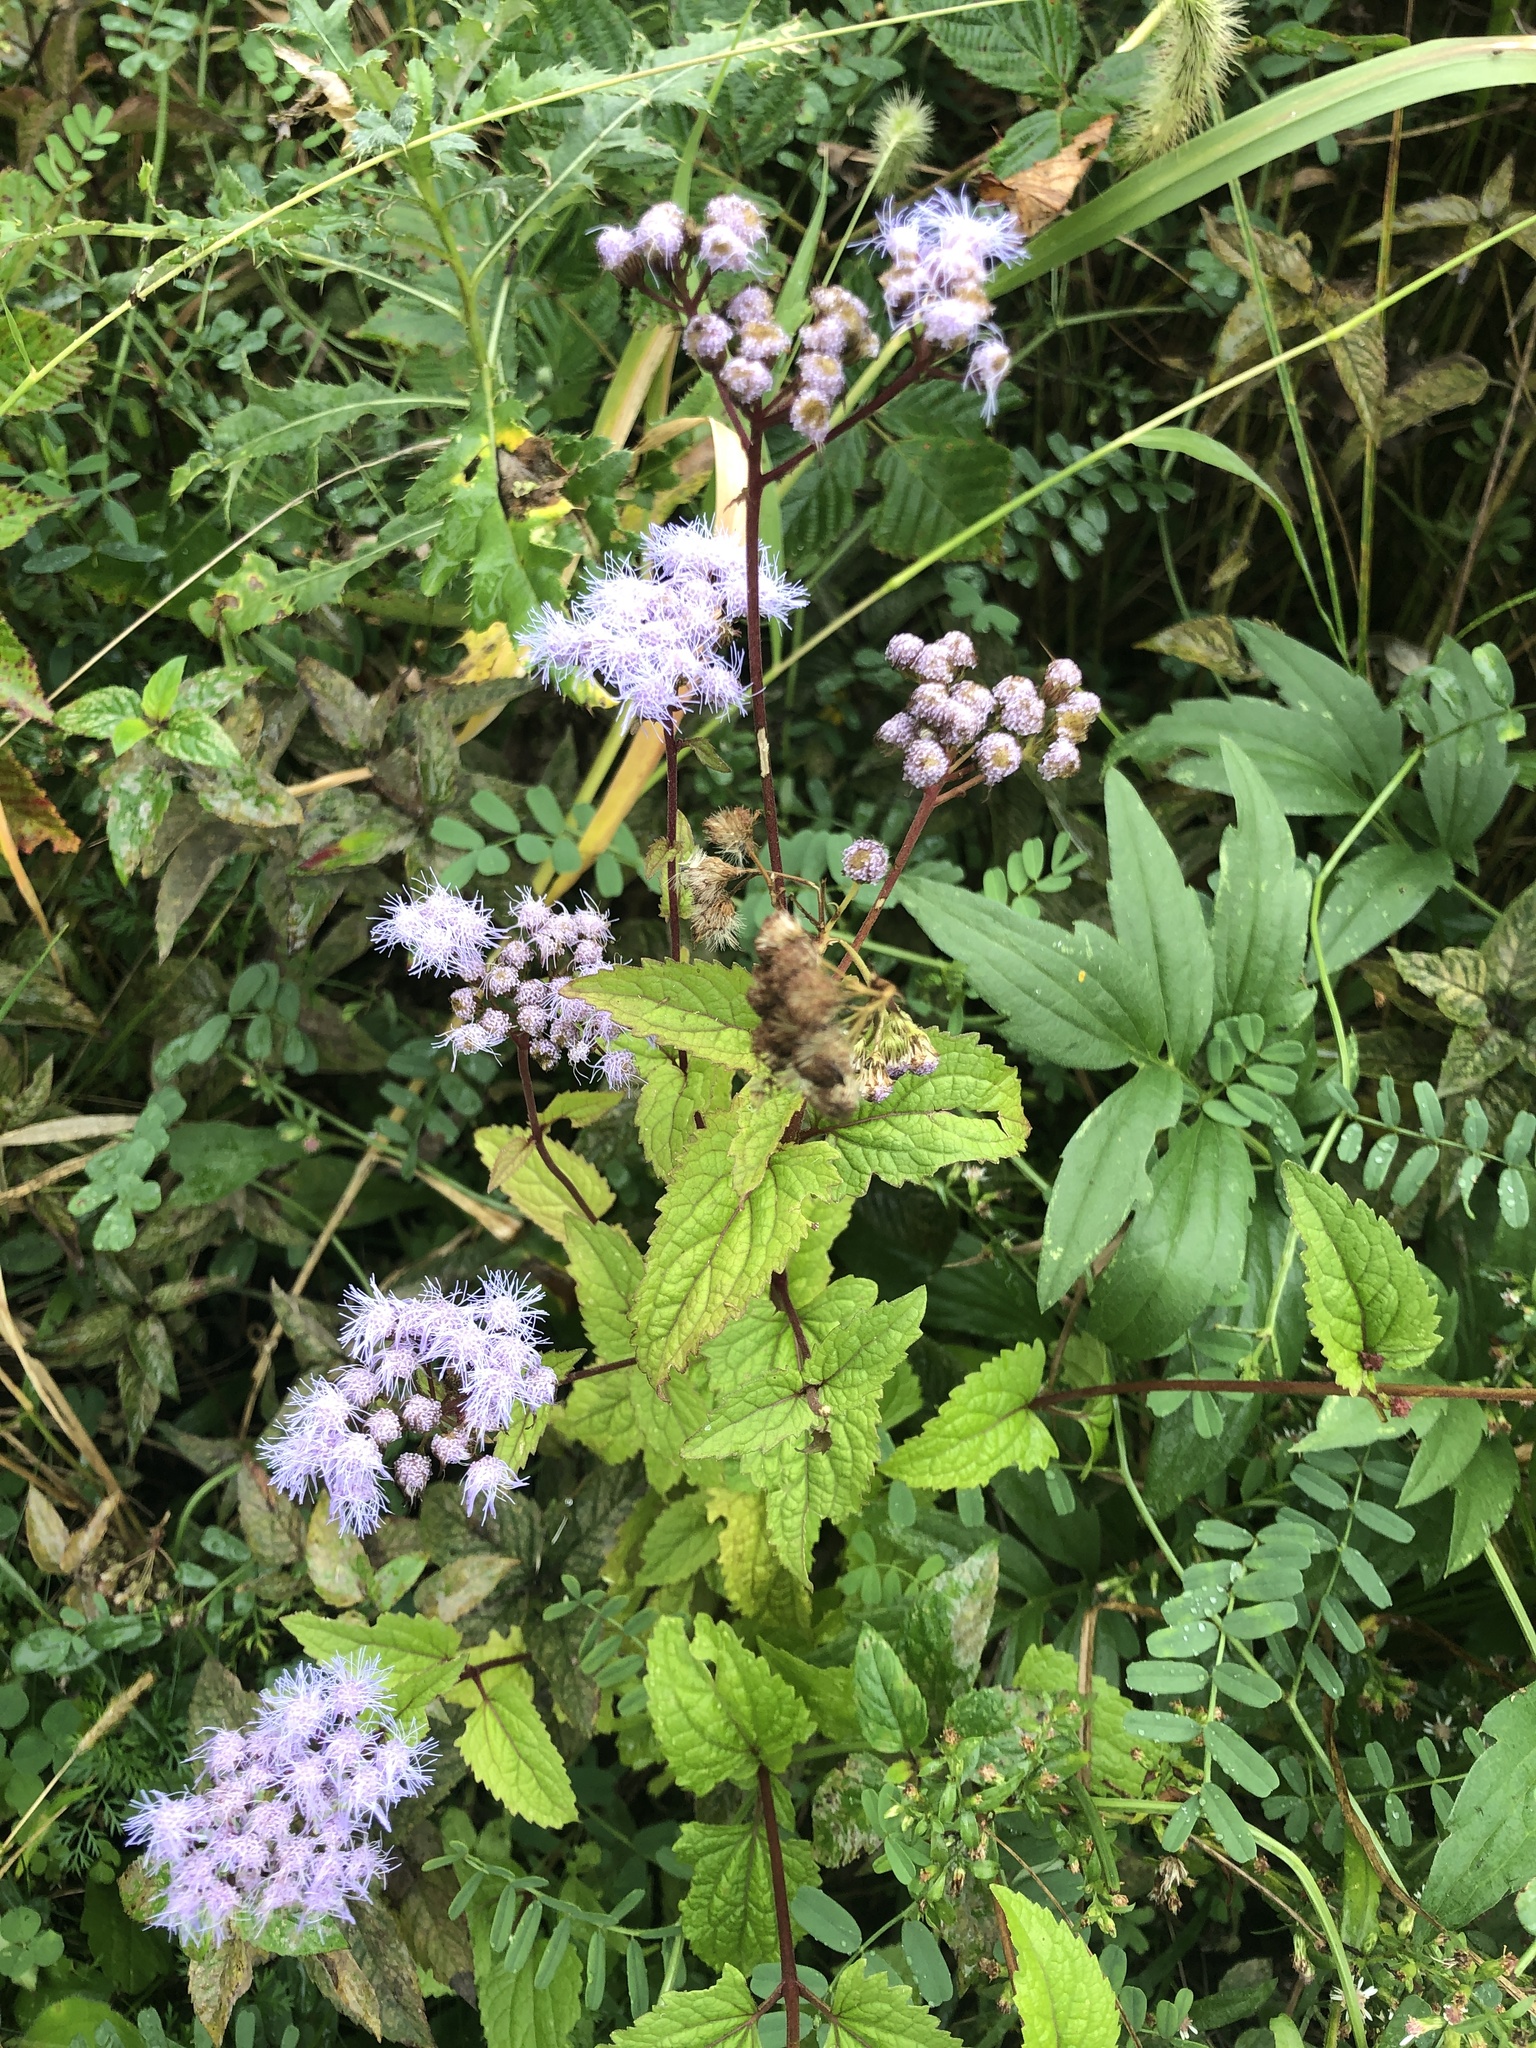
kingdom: Plantae
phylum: Tracheophyta
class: Magnoliopsida
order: Asterales
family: Asteraceae
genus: Conoclinium
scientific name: Conoclinium coelestinum
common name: Blue mistflower
